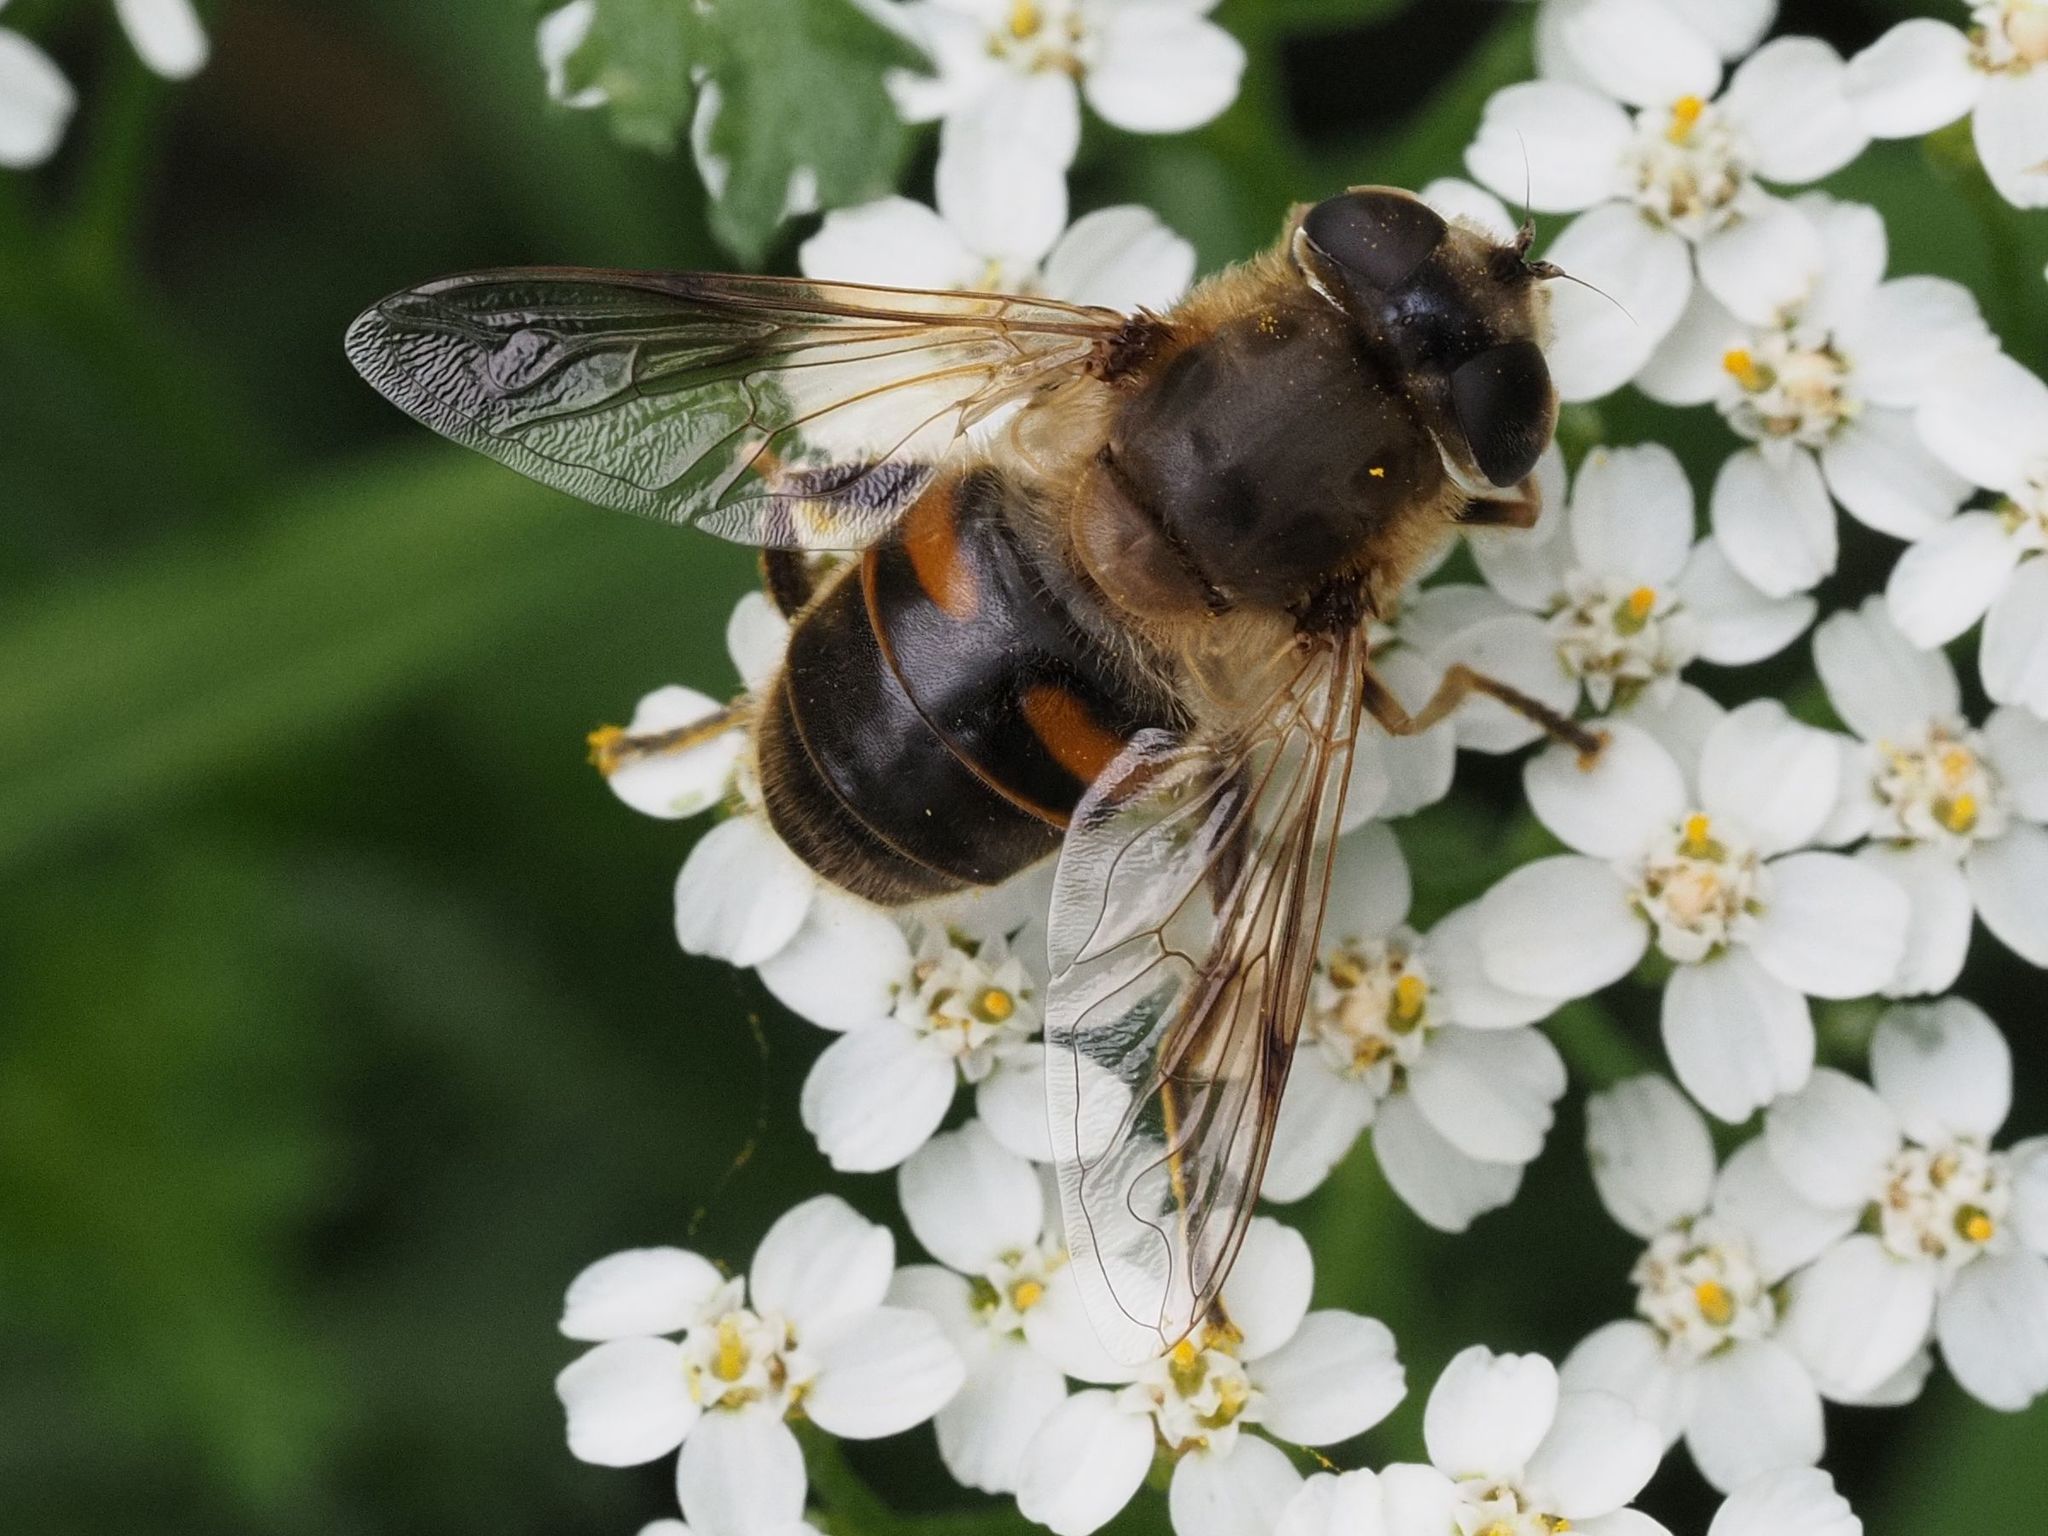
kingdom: Animalia
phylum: Arthropoda
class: Insecta
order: Diptera
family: Syrphidae
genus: Eristalis
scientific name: Eristalis tenax
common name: Drone fly
